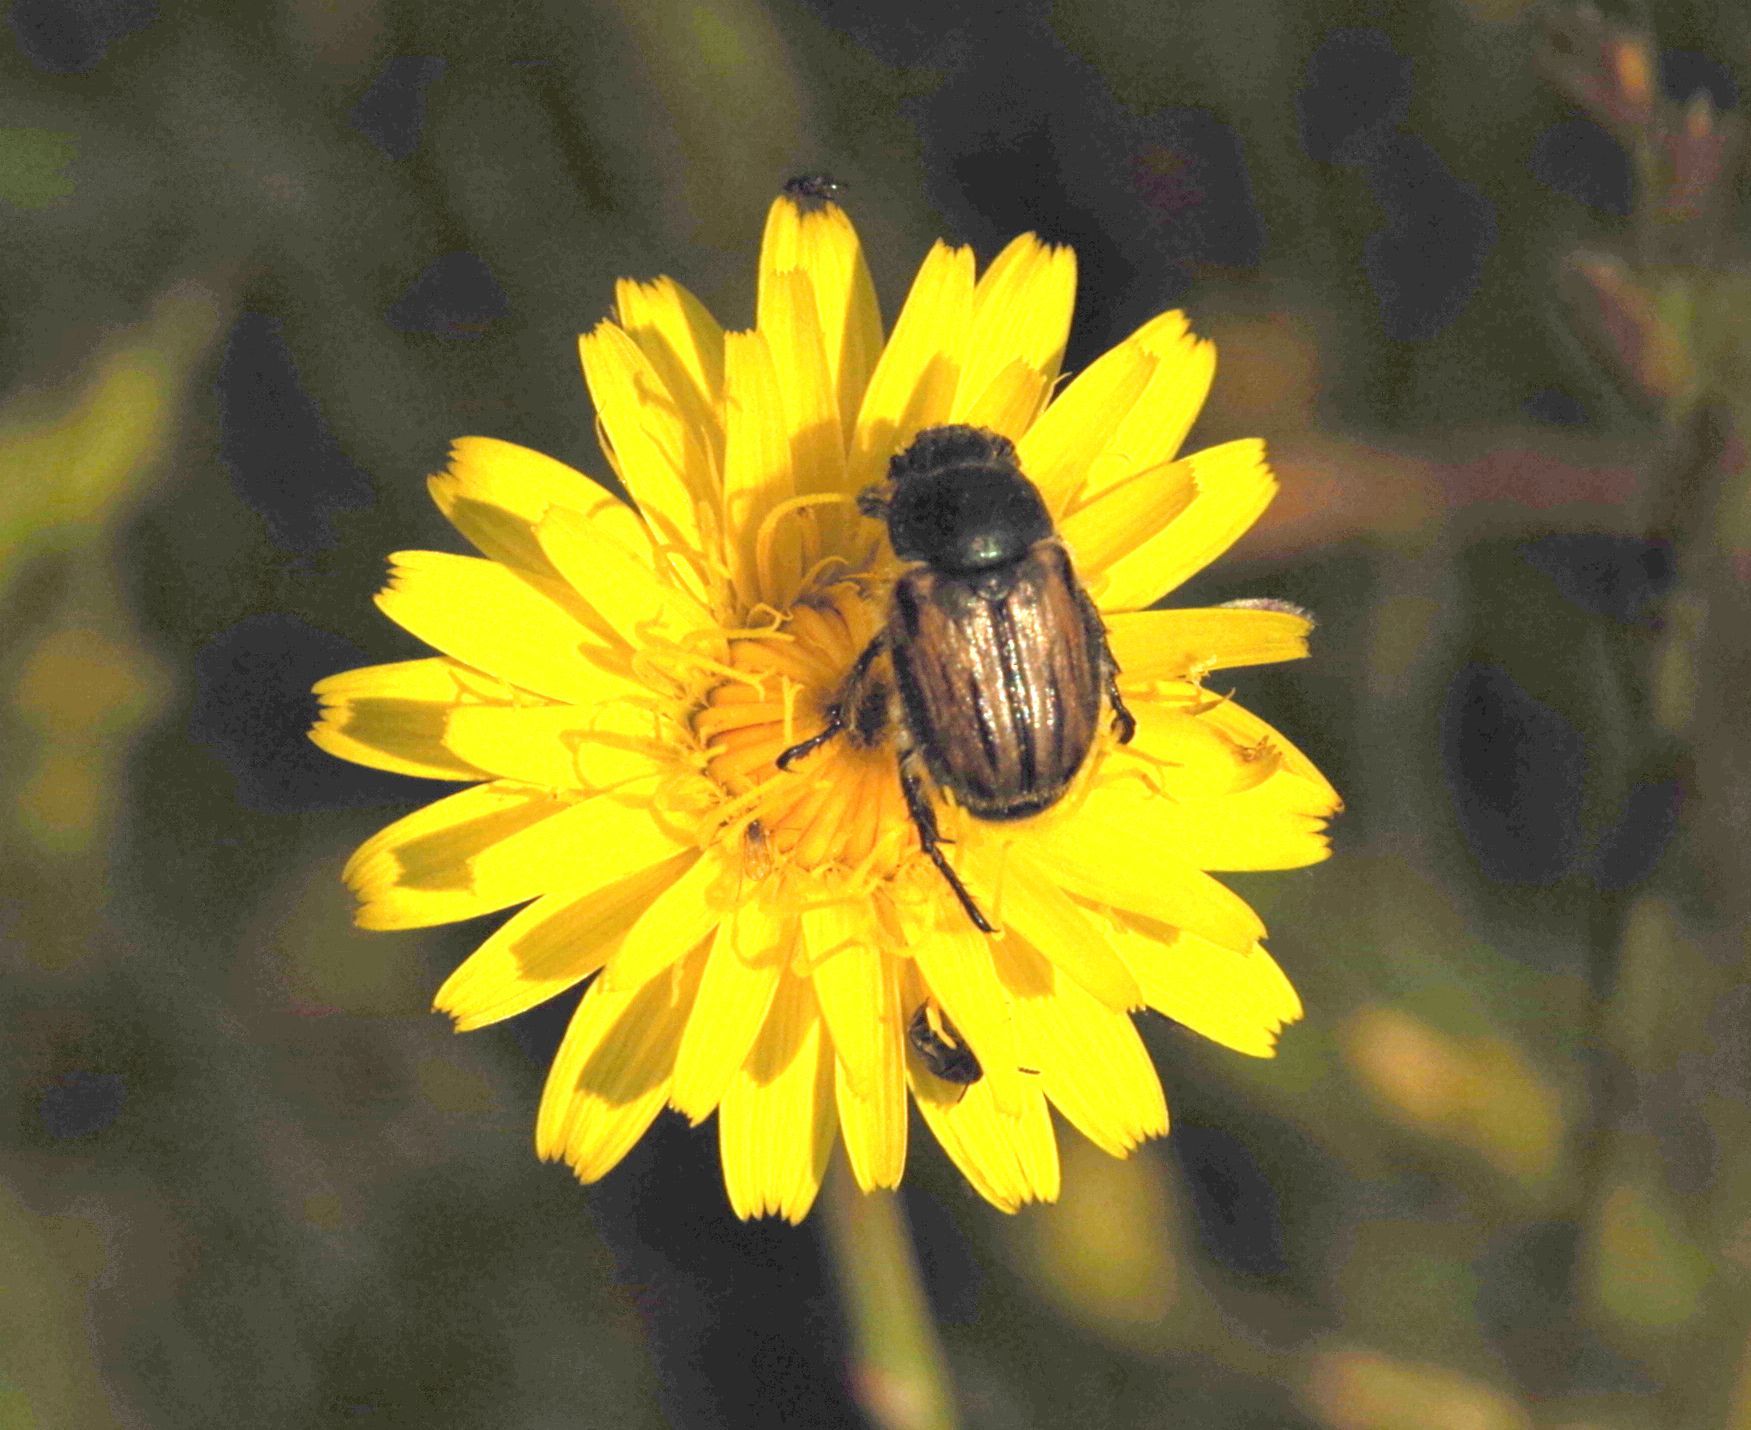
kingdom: Animalia
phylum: Arthropoda
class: Insecta
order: Coleoptera
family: Scarabaeidae
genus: Blitopertha
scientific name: Blitopertha lineolata
